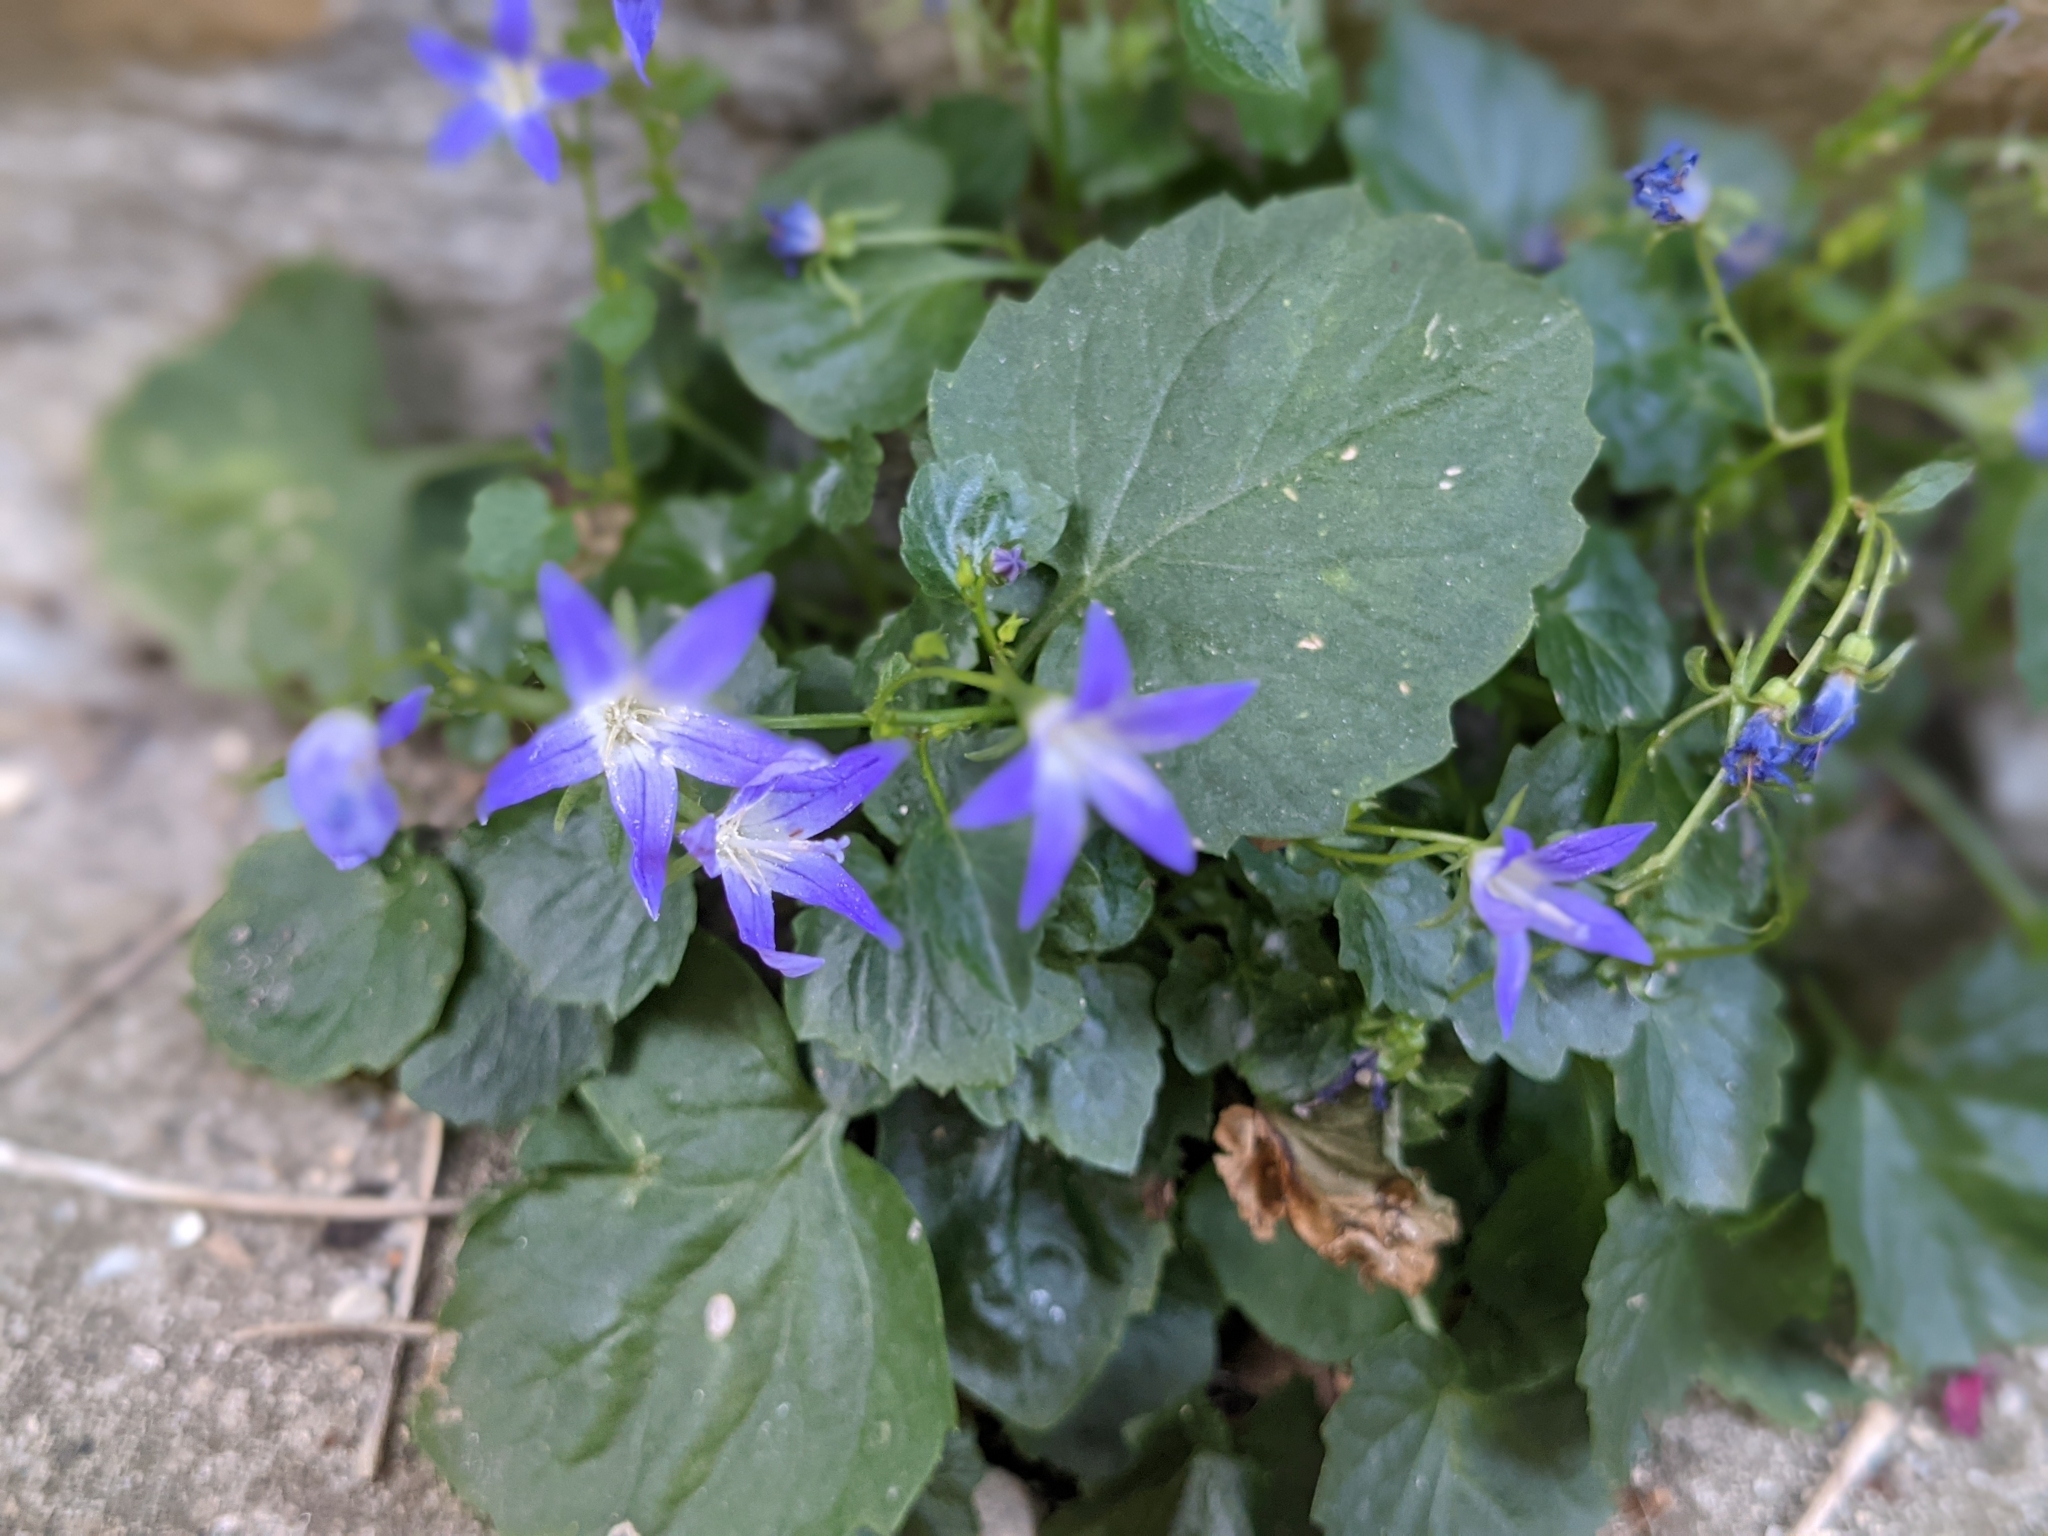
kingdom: Plantae
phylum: Tracheophyta
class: Magnoliopsida
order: Asterales
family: Campanulaceae
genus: Campanula
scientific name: Campanula poscharskyana
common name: Trailing bellflower
